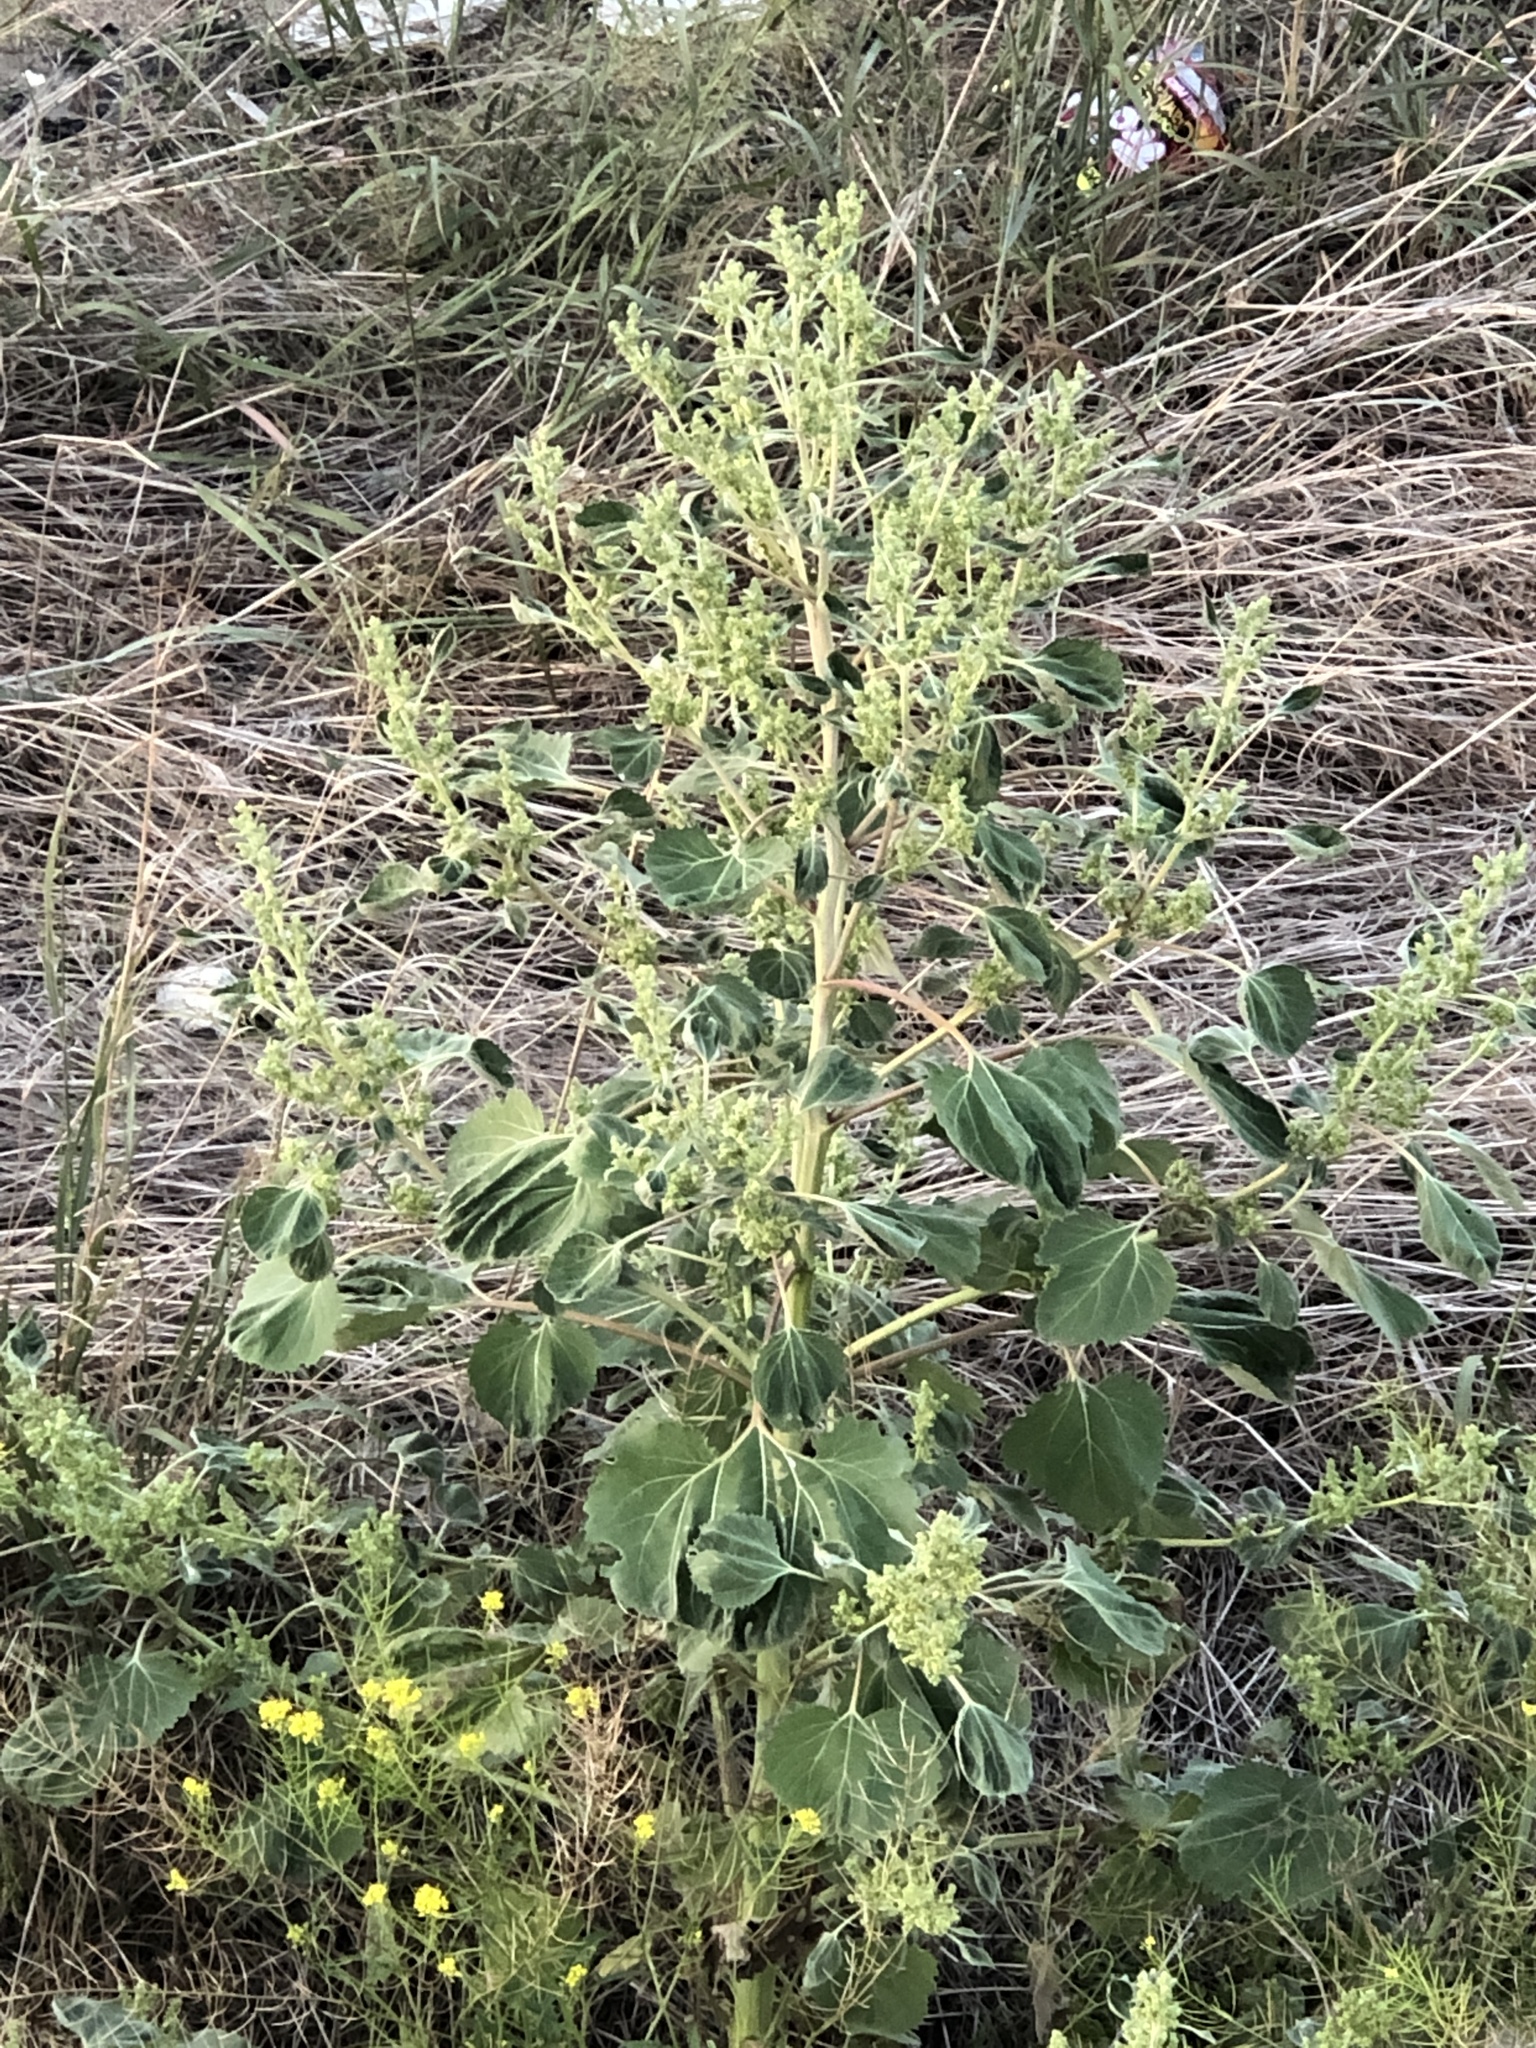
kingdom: Plantae
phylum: Tracheophyta
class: Magnoliopsida
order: Asterales
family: Asteraceae
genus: Cyclachaena
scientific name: Cyclachaena xanthiifolia
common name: Giant sumpweed
